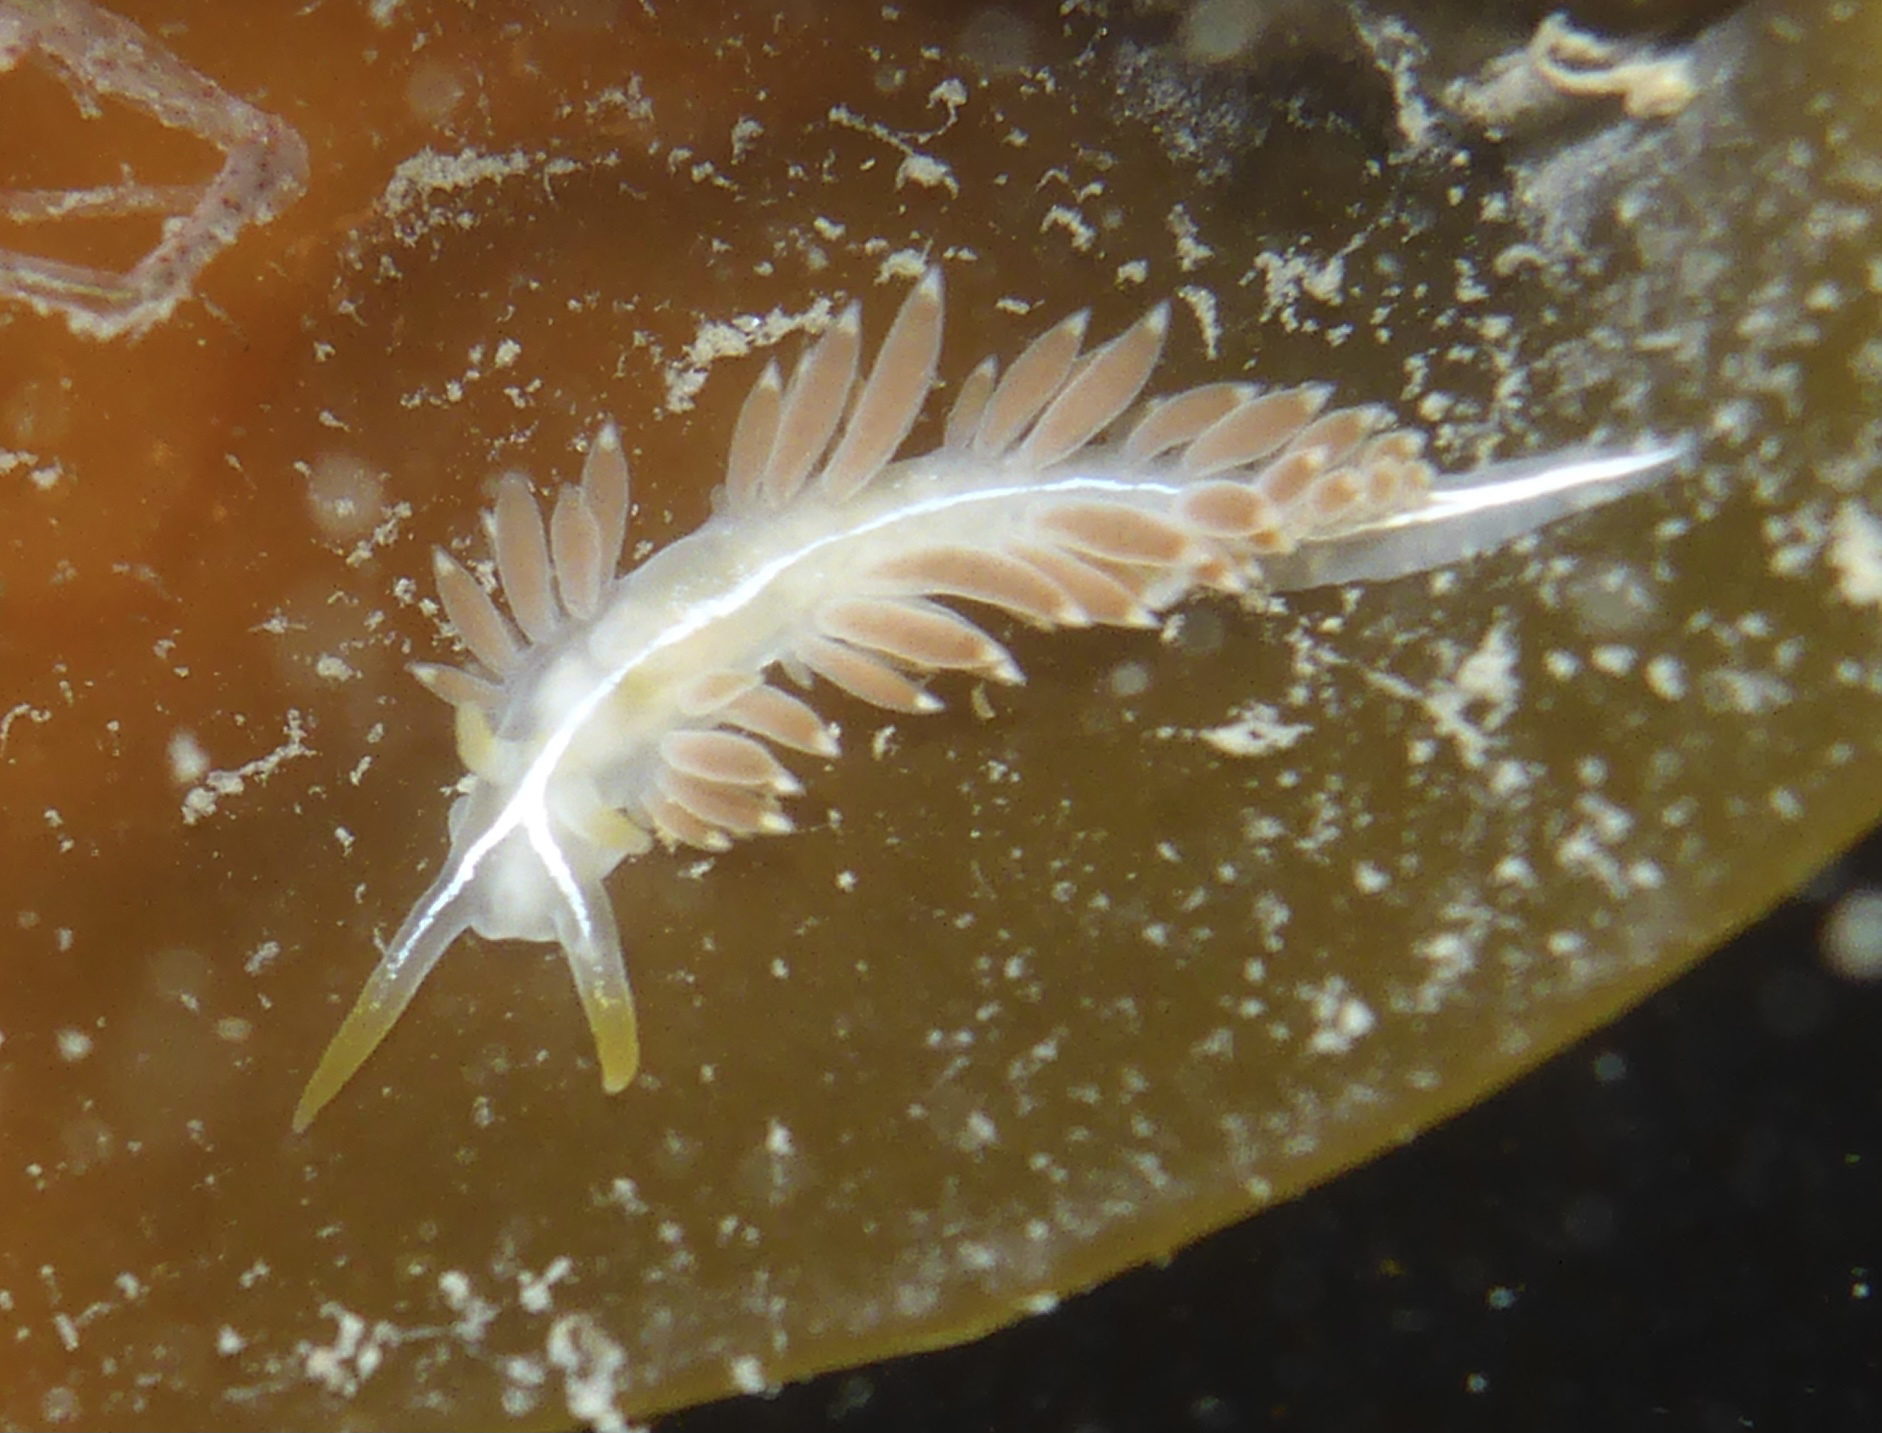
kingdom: Animalia
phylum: Mollusca
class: Gastropoda
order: Nudibranchia
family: Coryphellidae
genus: Coryphella
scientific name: Coryphella trilineata
